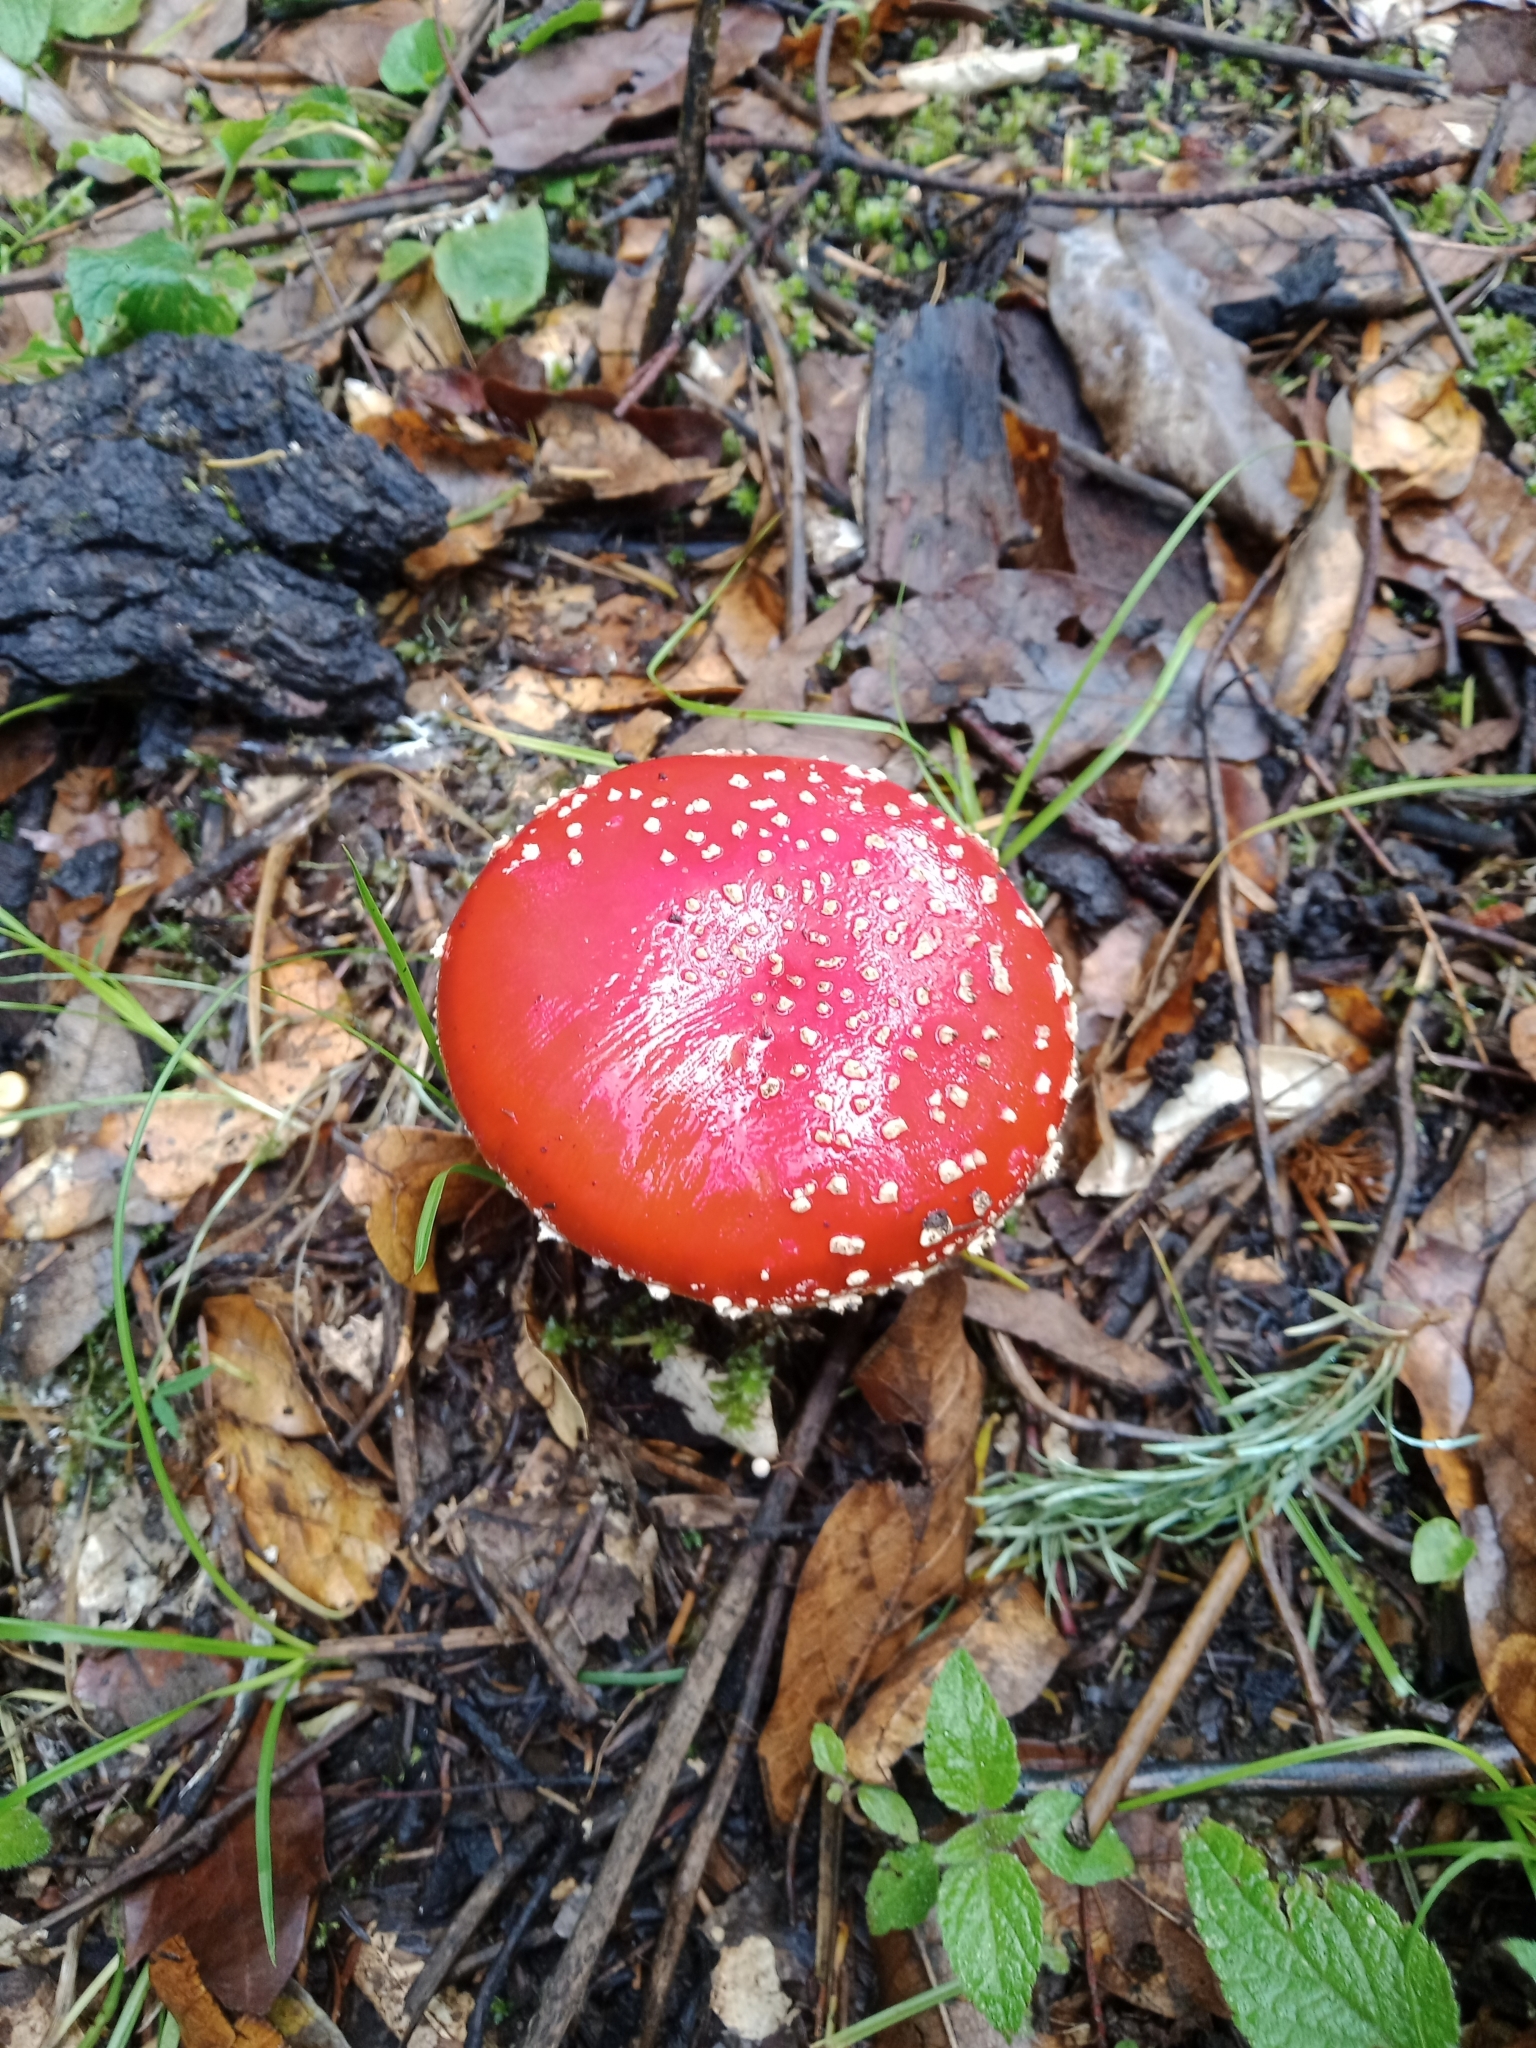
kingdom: Fungi
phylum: Basidiomycota
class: Agaricomycetes
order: Agaricales
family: Amanitaceae
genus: Amanita
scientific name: Amanita muscaria
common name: Fly agaric
